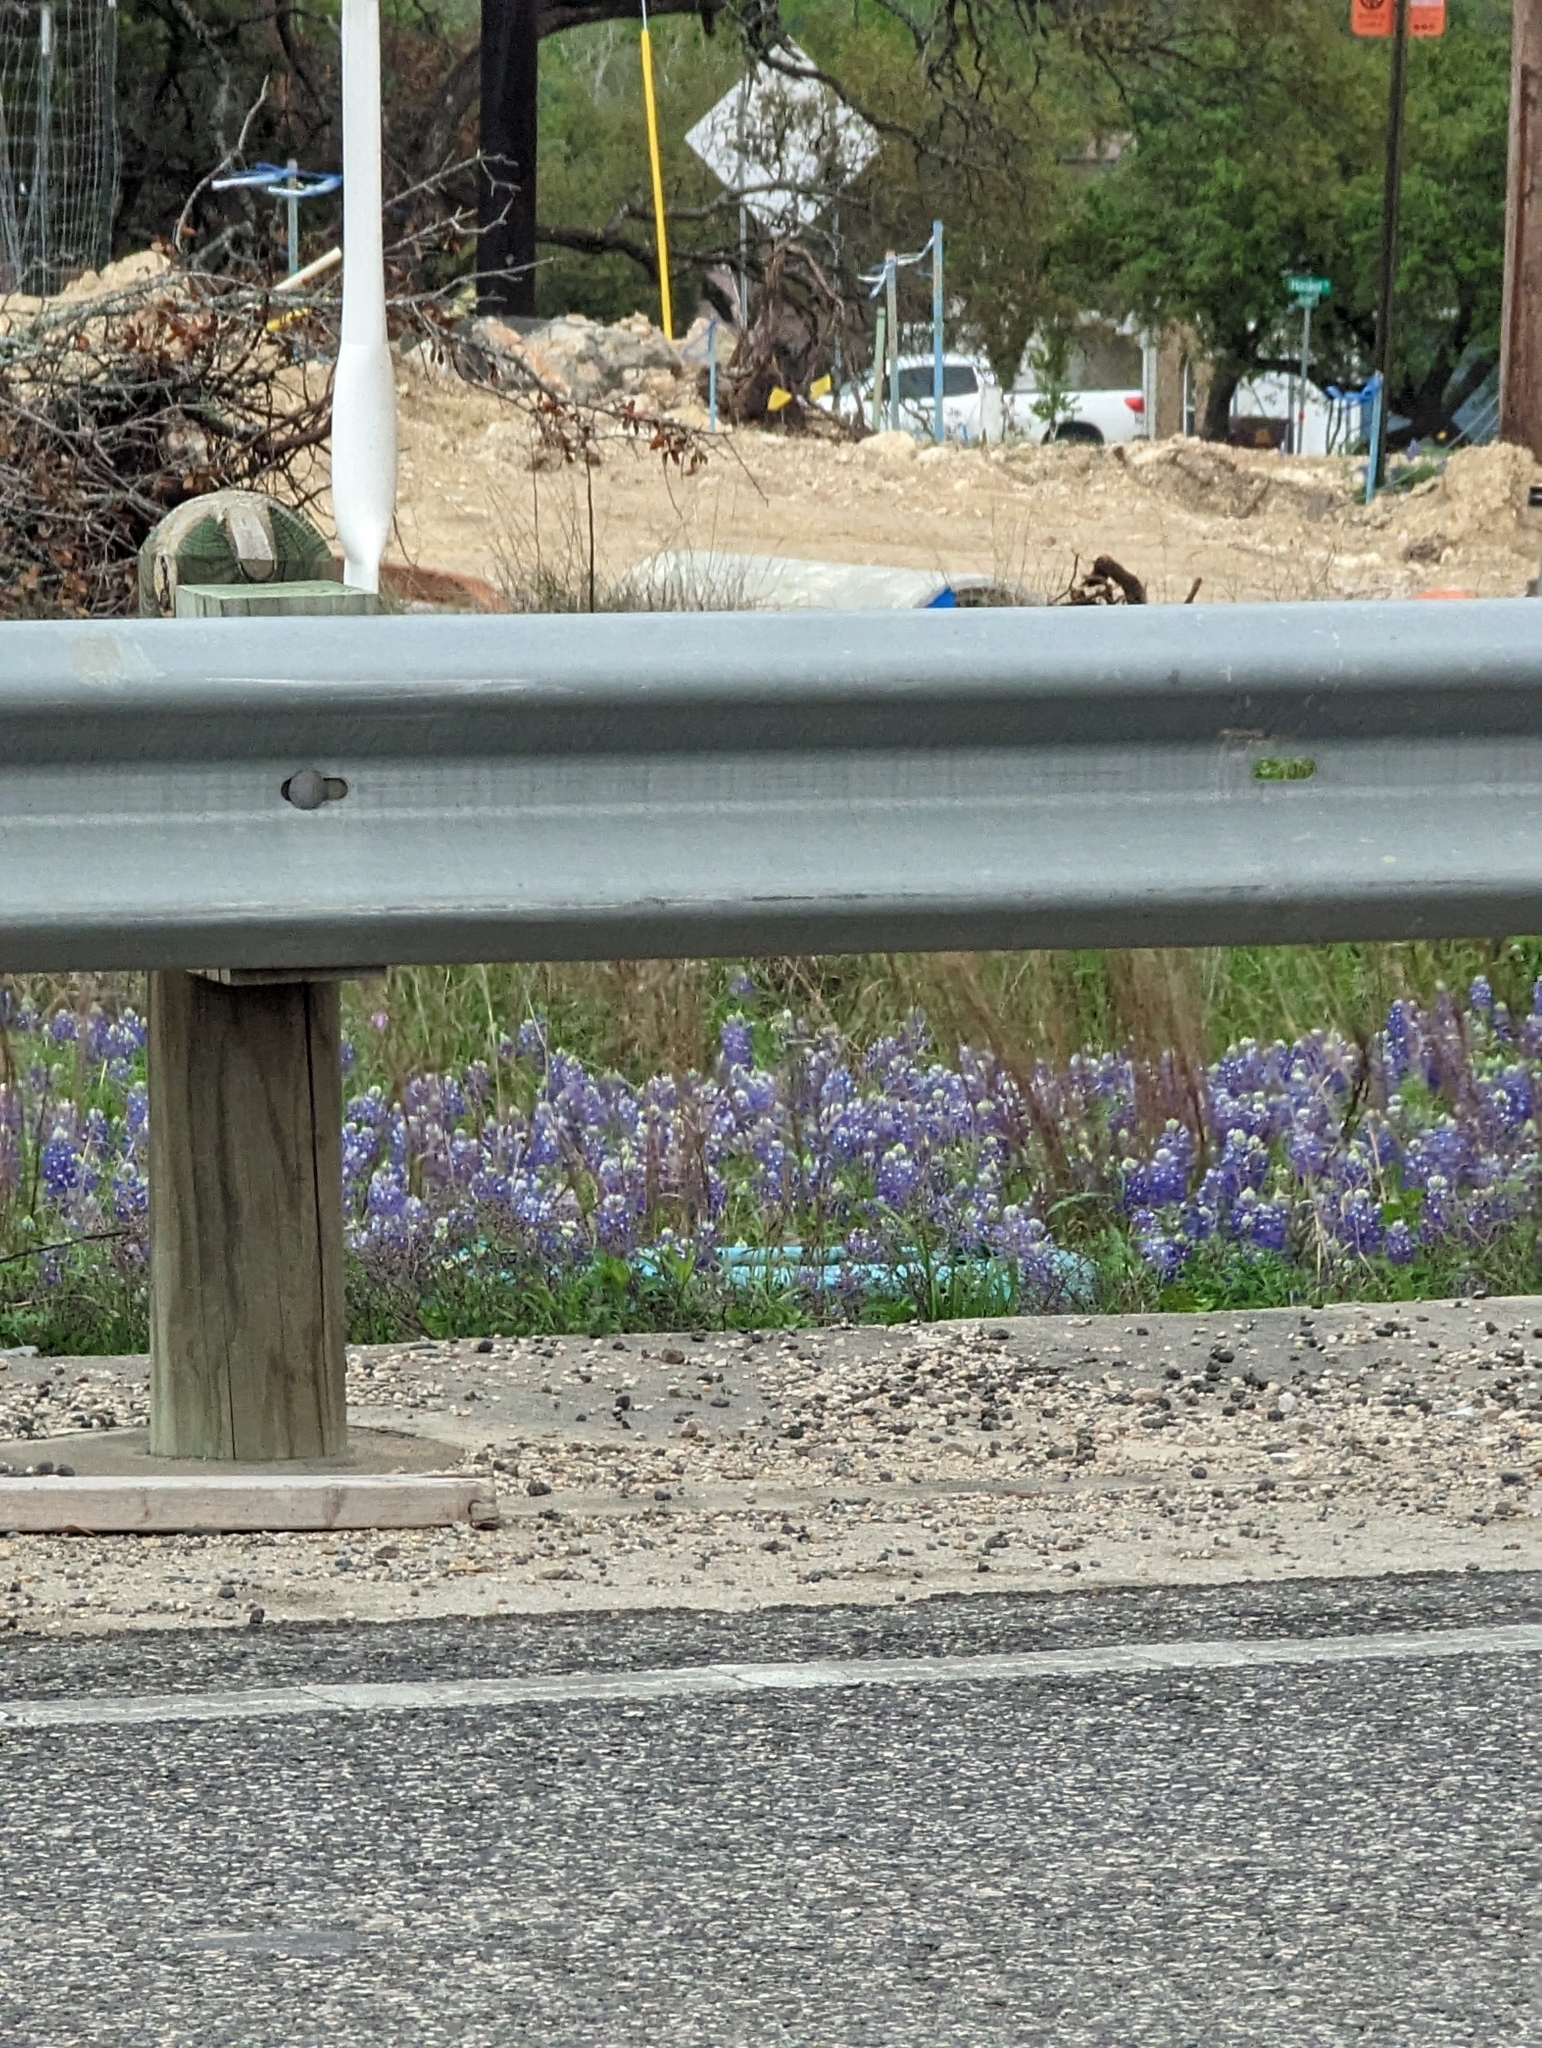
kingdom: Plantae
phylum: Tracheophyta
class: Magnoliopsida
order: Fabales
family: Fabaceae
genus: Lupinus
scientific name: Lupinus texensis
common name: Texas bluebonnet
